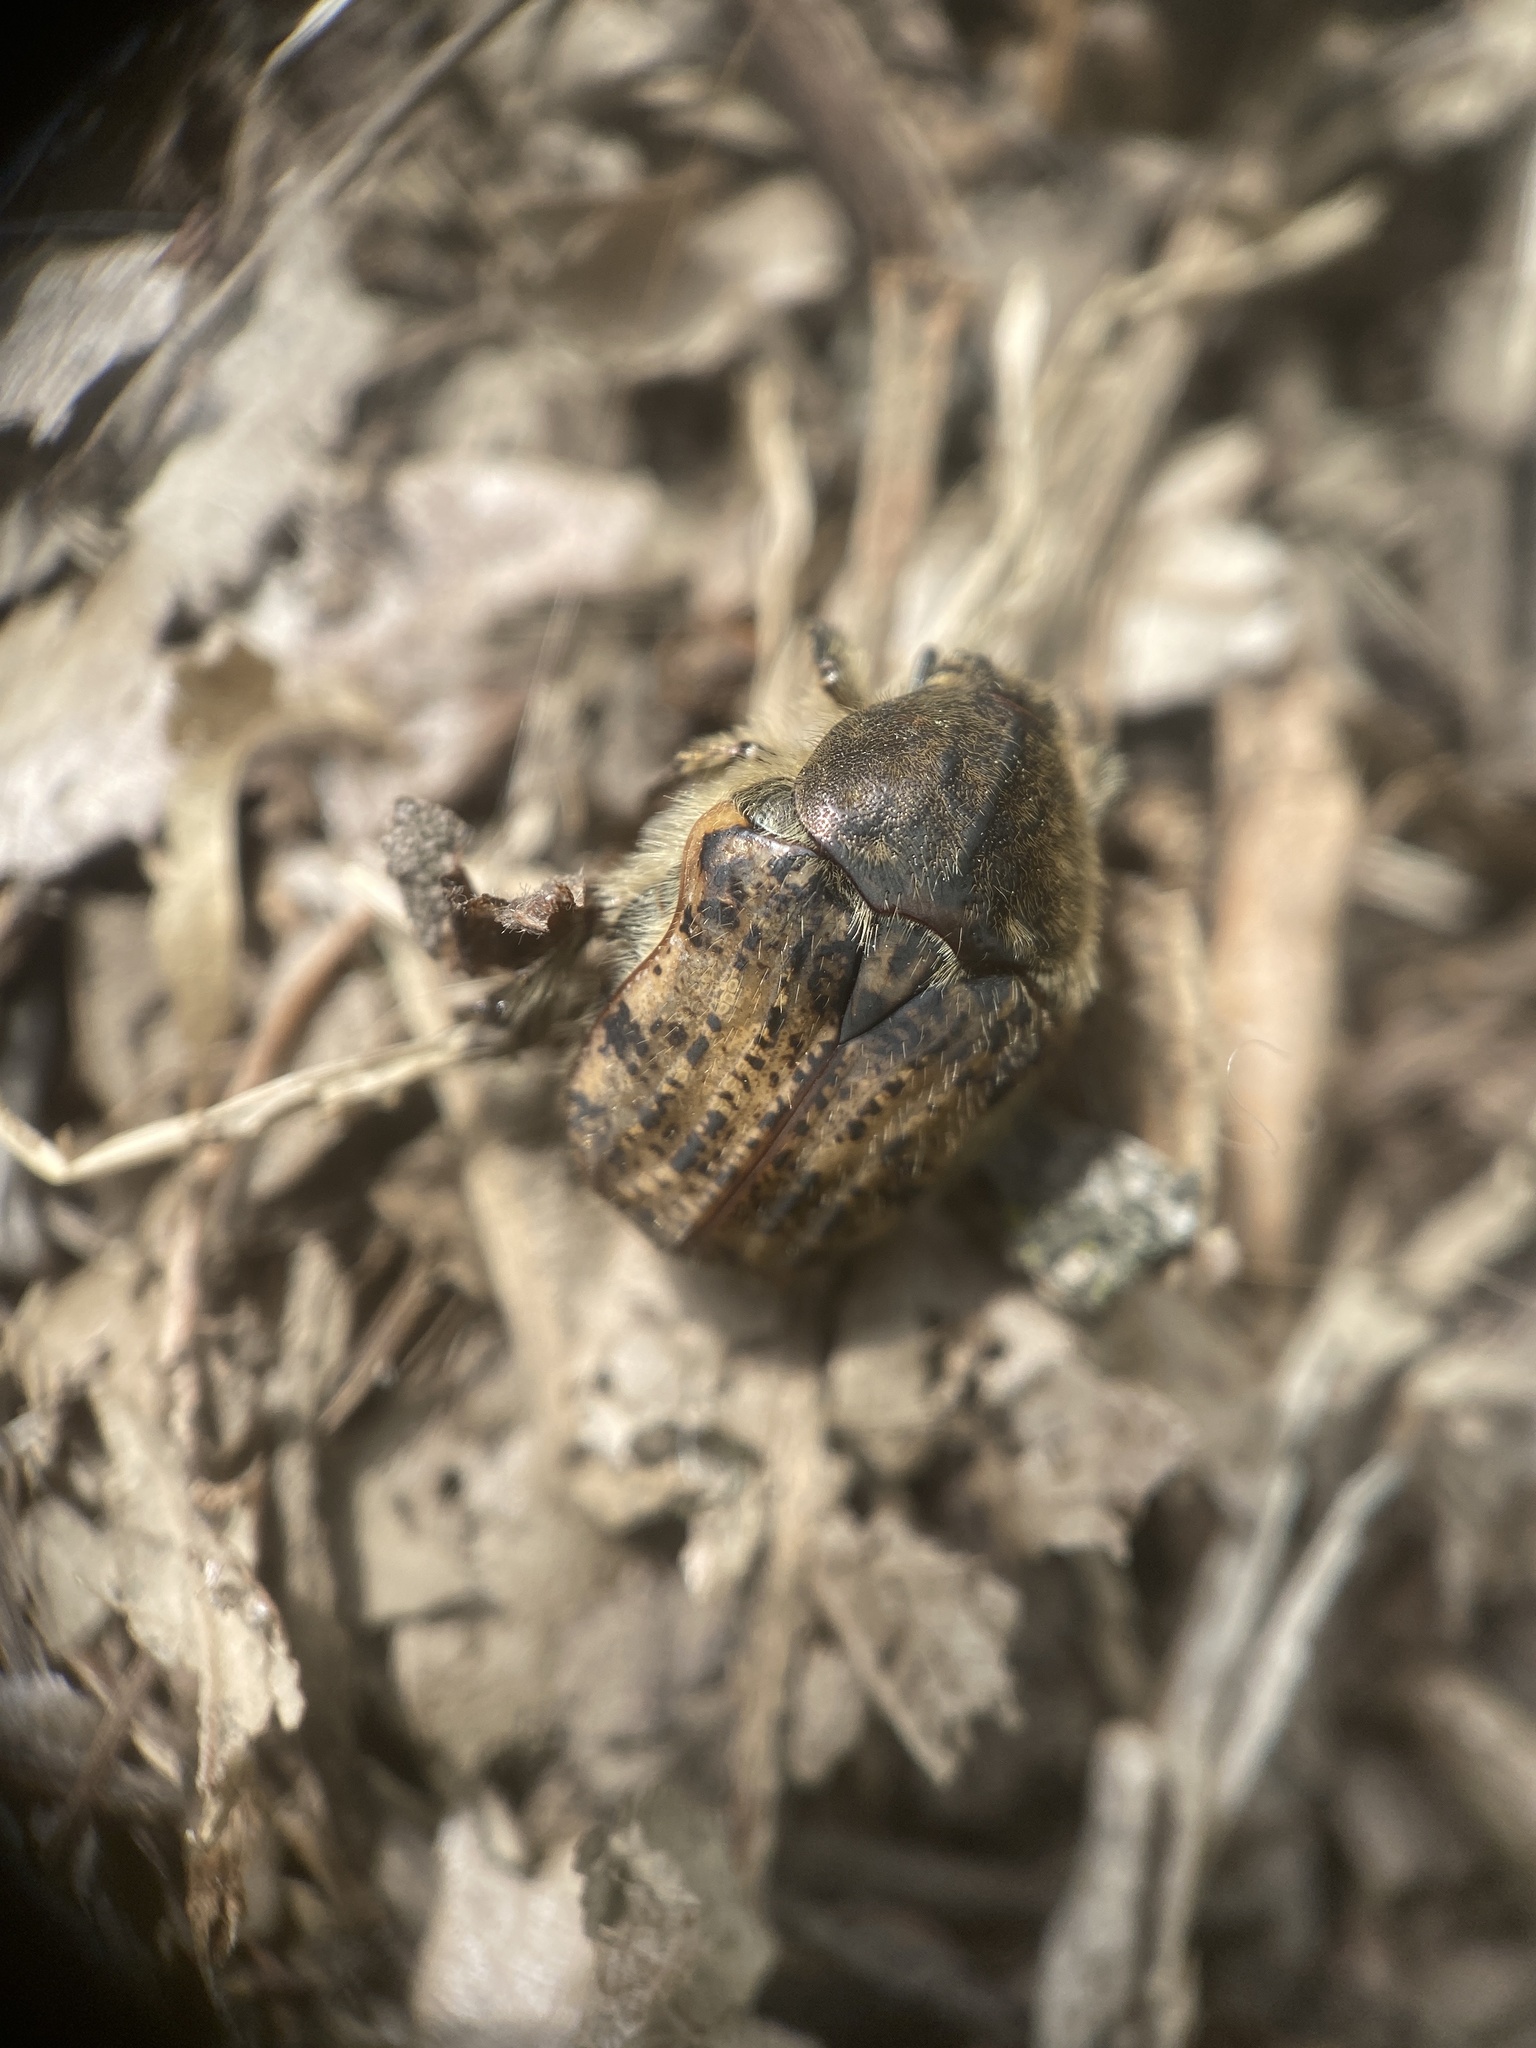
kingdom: Animalia
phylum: Arthropoda
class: Insecta
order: Coleoptera
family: Scarabaeidae
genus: Euphoria
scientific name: Euphoria inda
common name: Bumble flower beetle
